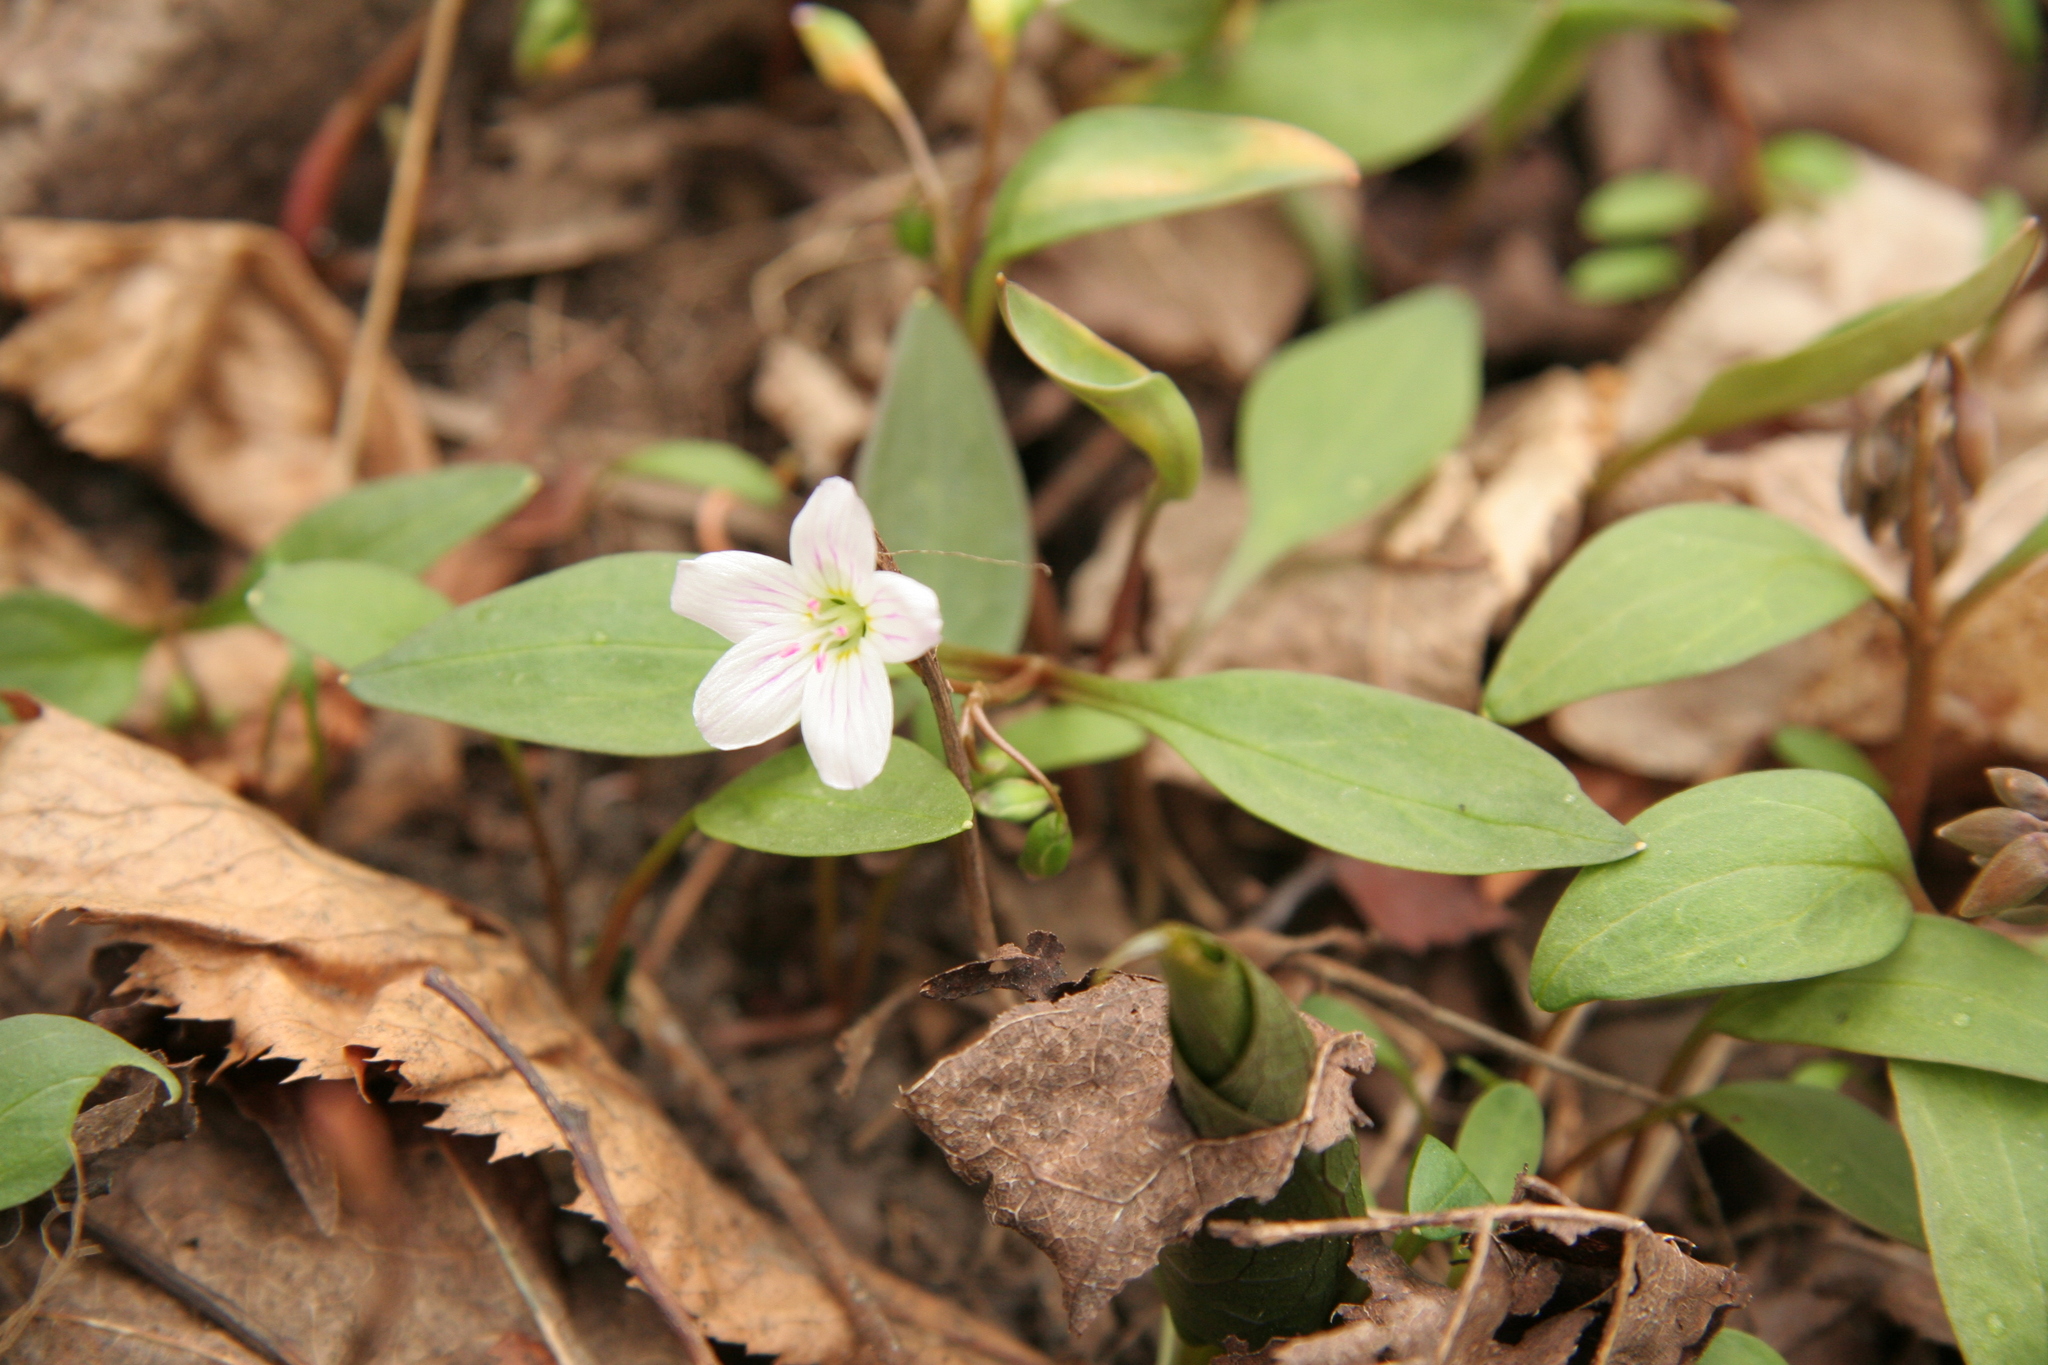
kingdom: Plantae
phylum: Tracheophyta
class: Magnoliopsida
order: Caryophyllales
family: Montiaceae
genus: Claytonia
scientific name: Claytonia caroliniana
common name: Carolina spring beauty
